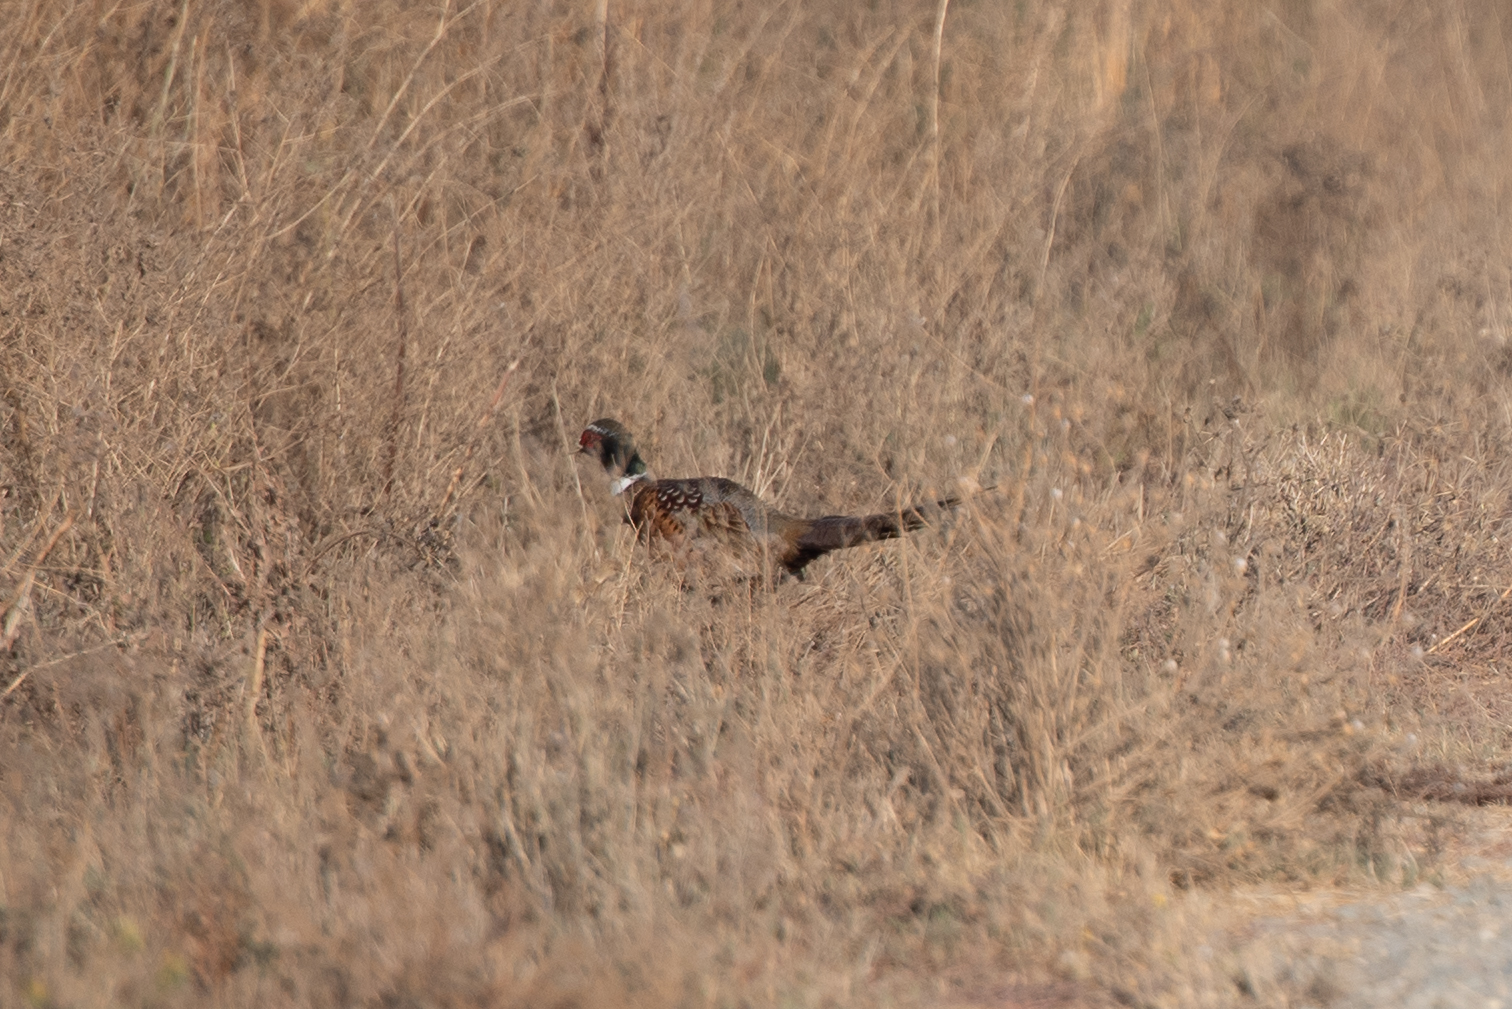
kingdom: Animalia
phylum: Chordata
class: Aves
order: Galliformes
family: Phasianidae
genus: Phasianus
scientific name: Phasianus colchicus
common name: Common pheasant
